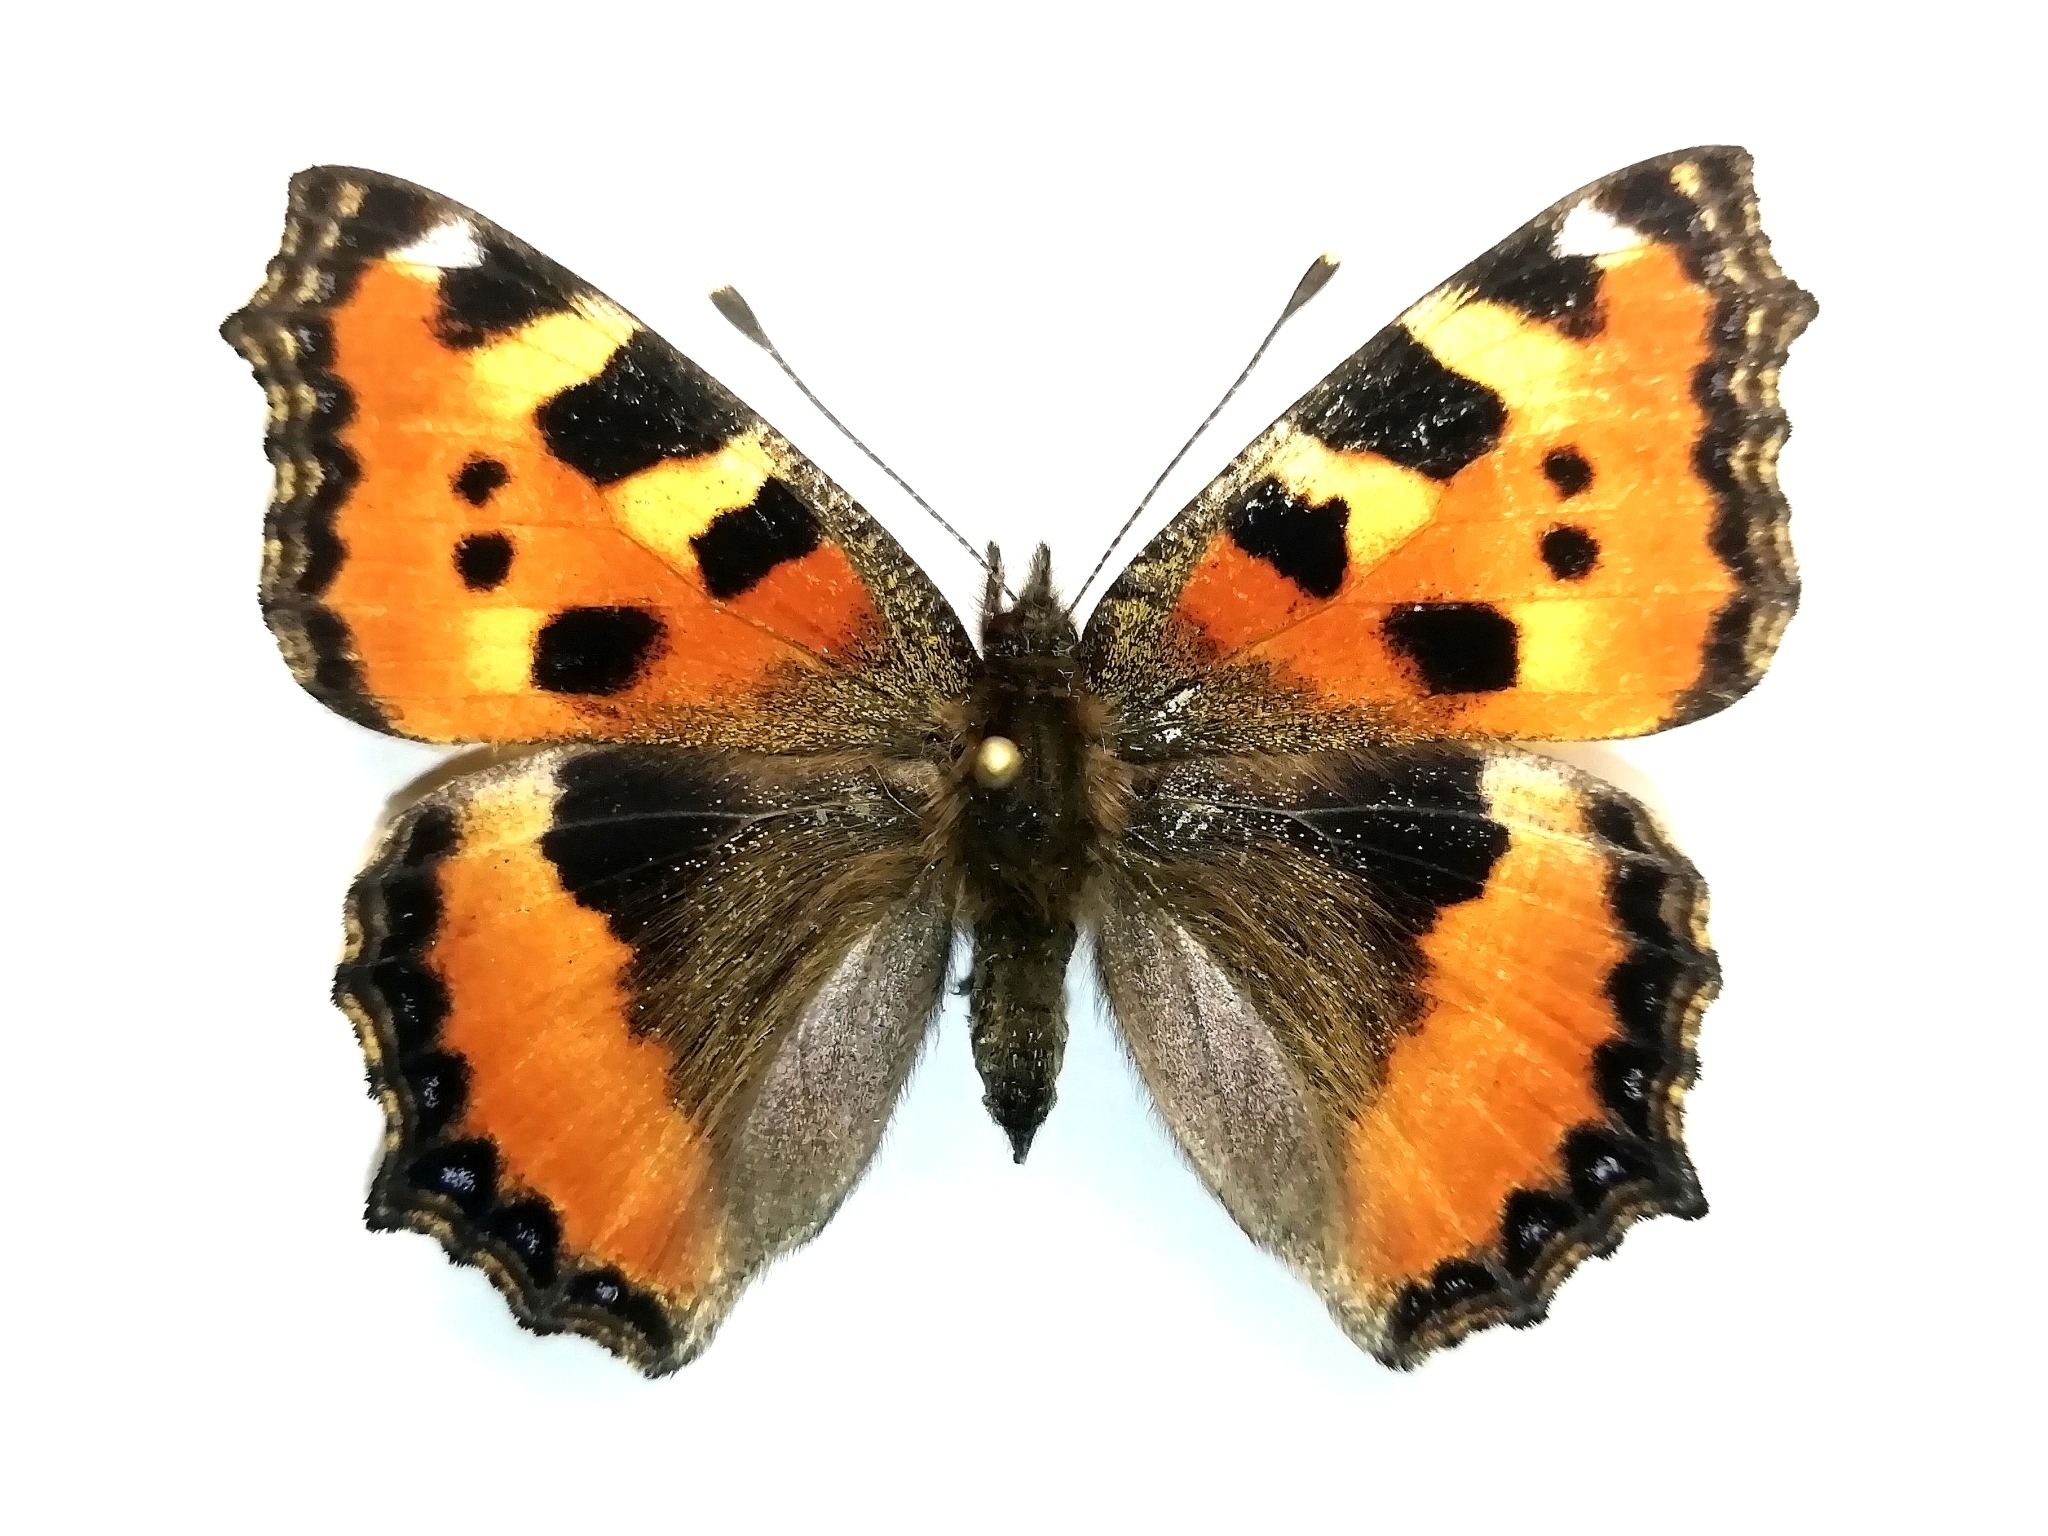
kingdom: Animalia
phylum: Arthropoda
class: Insecta
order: Lepidoptera
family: Nymphalidae
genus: Aglais
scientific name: Aglais urticae
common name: Small tortoiseshell
